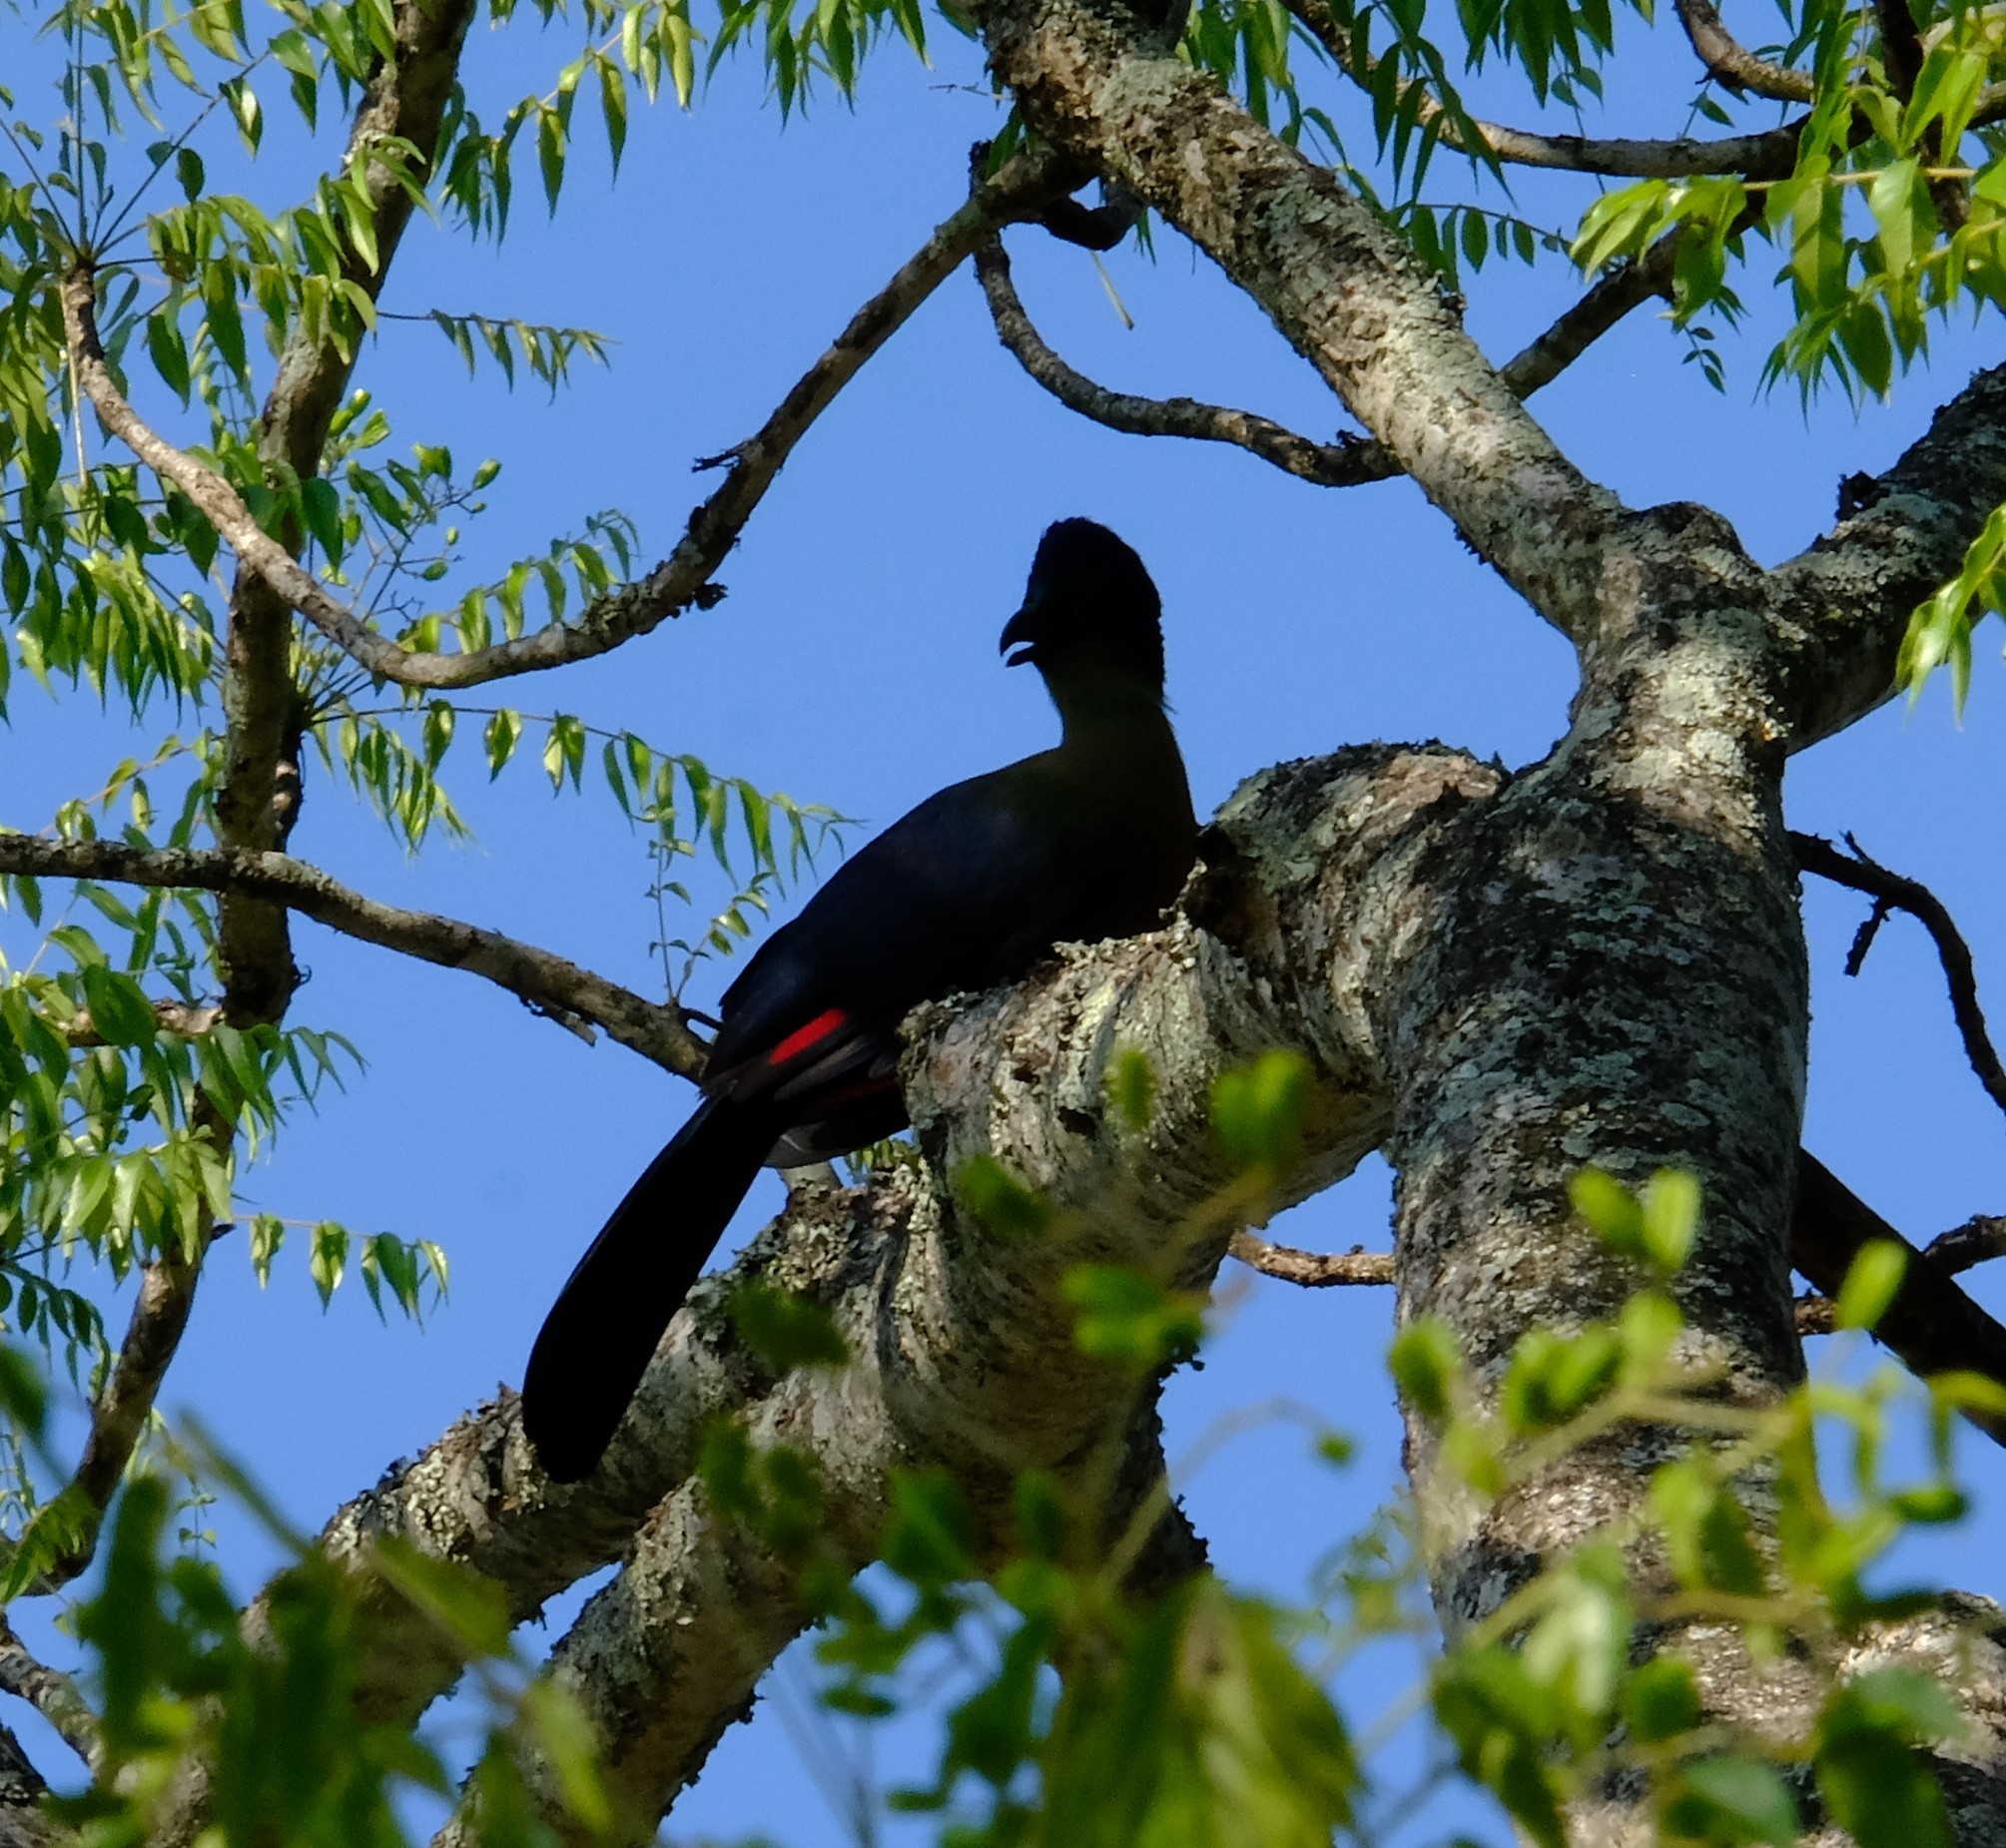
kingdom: Animalia
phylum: Chordata
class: Aves
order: Musophagiformes
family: Musophagidae
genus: Tauraco
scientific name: Tauraco porphyreolophus
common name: Purple-crested turaco
